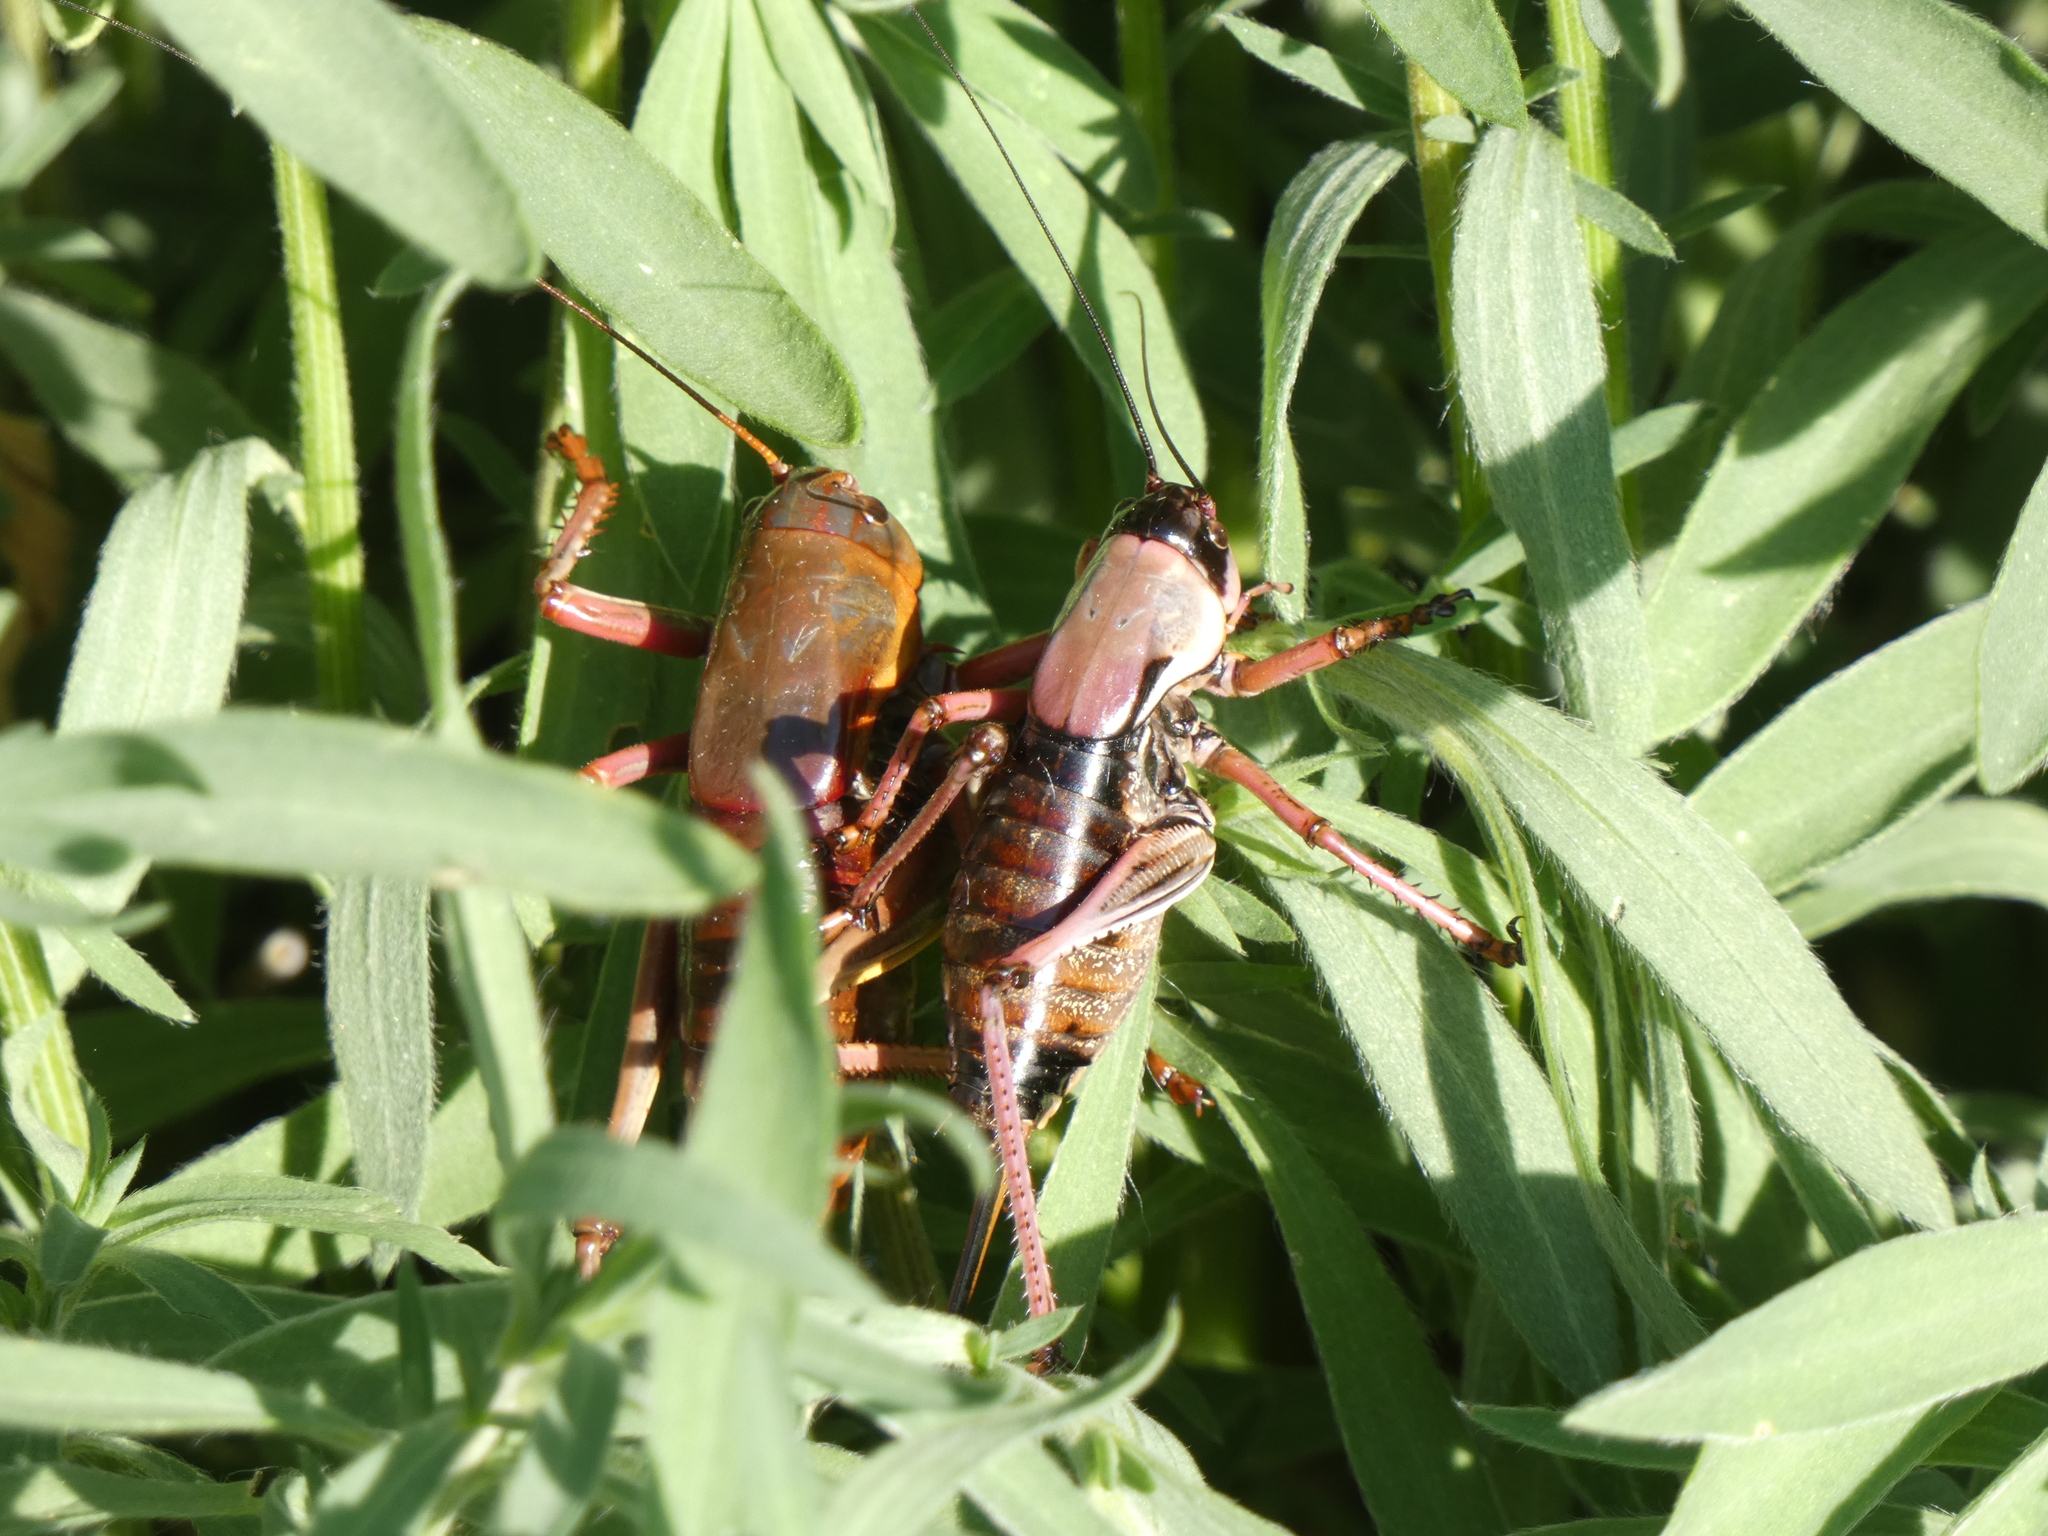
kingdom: Animalia
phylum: Arthropoda
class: Insecta
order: Orthoptera
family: Tettigoniidae
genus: Anabrus
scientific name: Anabrus simplex
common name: Mormon cricket
